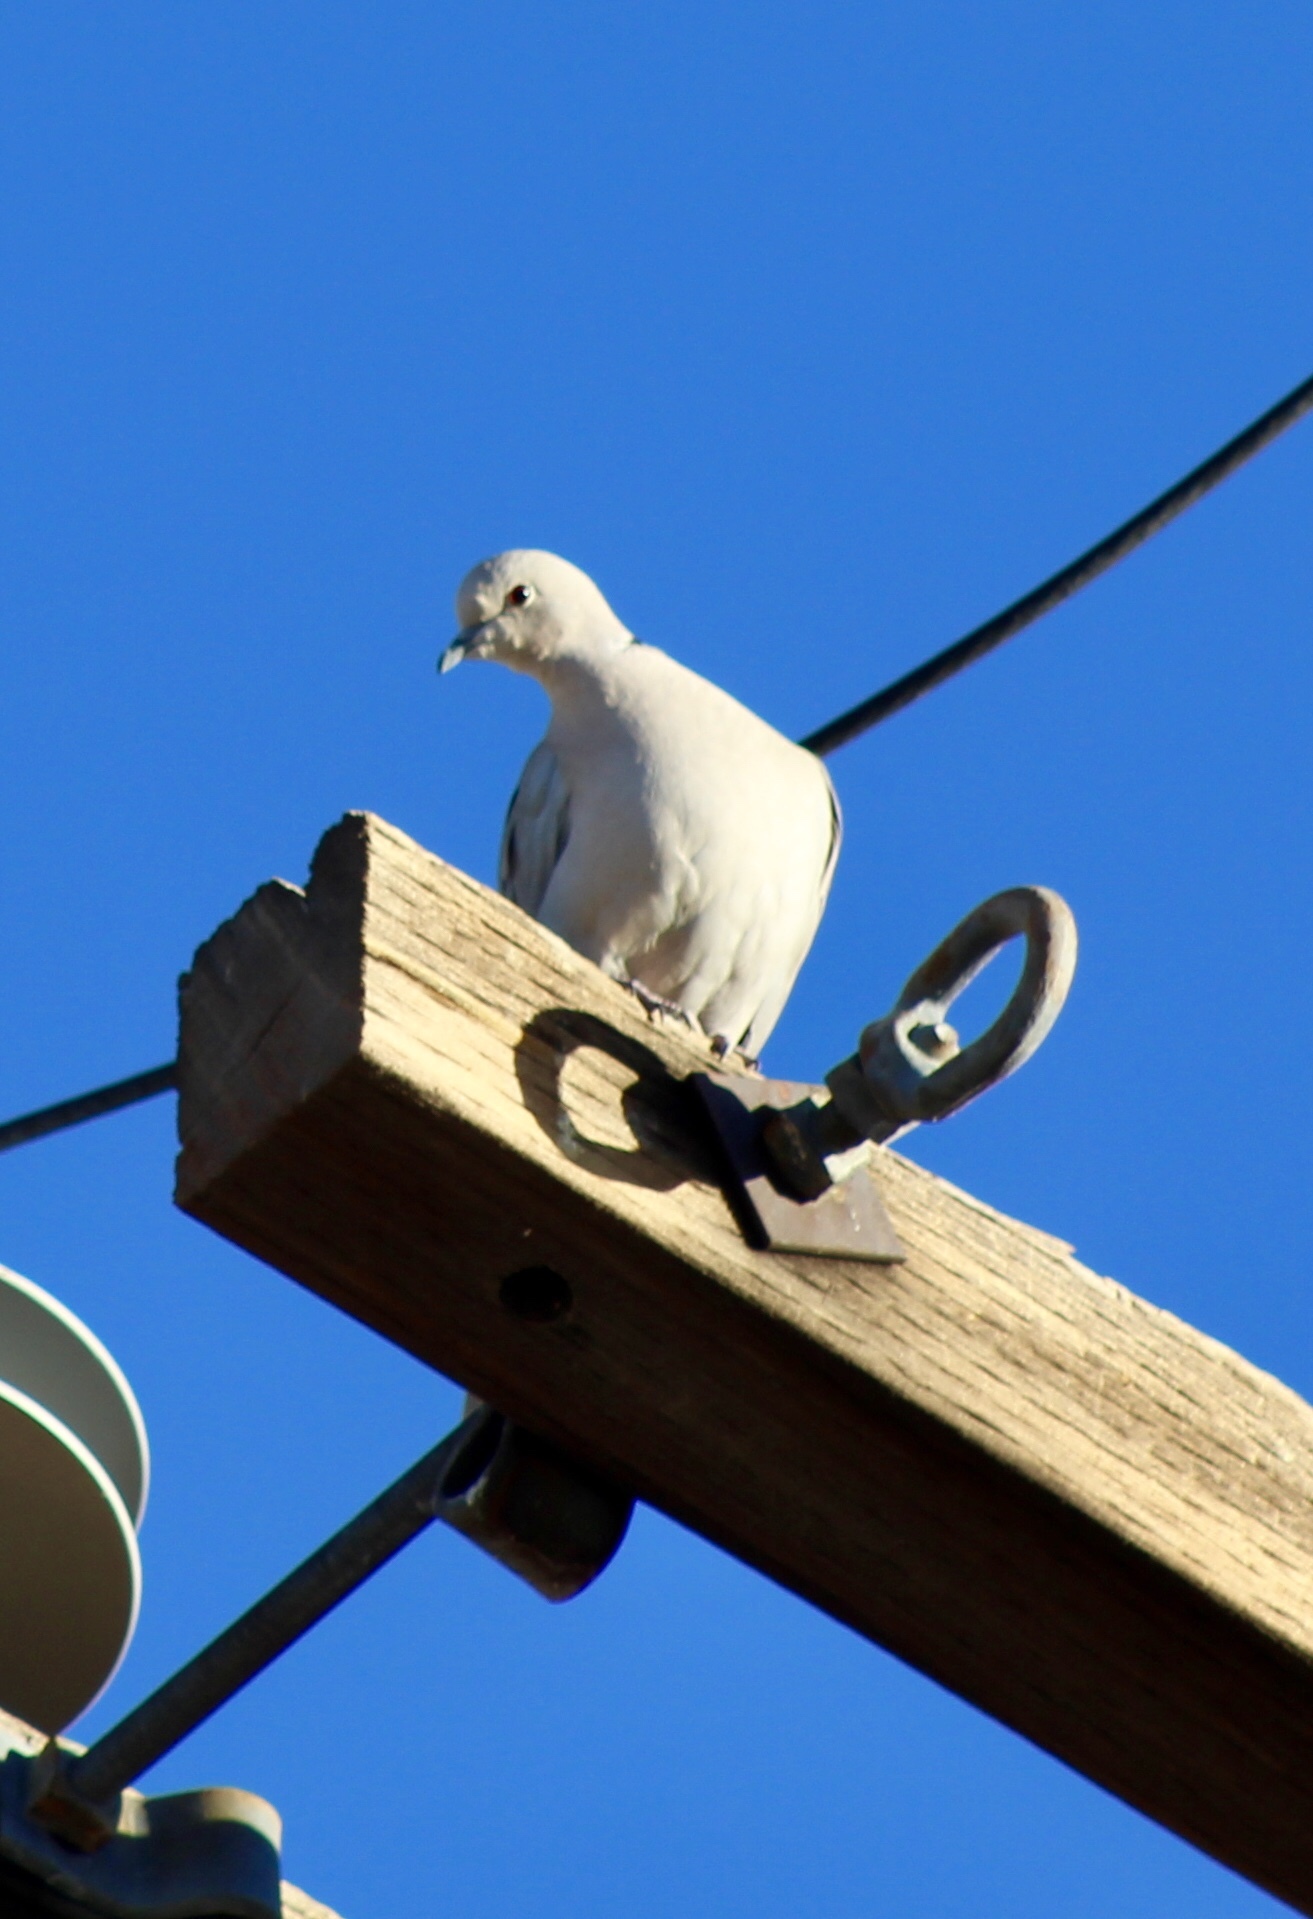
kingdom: Animalia
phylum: Chordata
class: Aves
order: Columbiformes
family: Columbidae
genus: Streptopelia
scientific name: Streptopelia decaocto
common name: Eurasian collared dove
